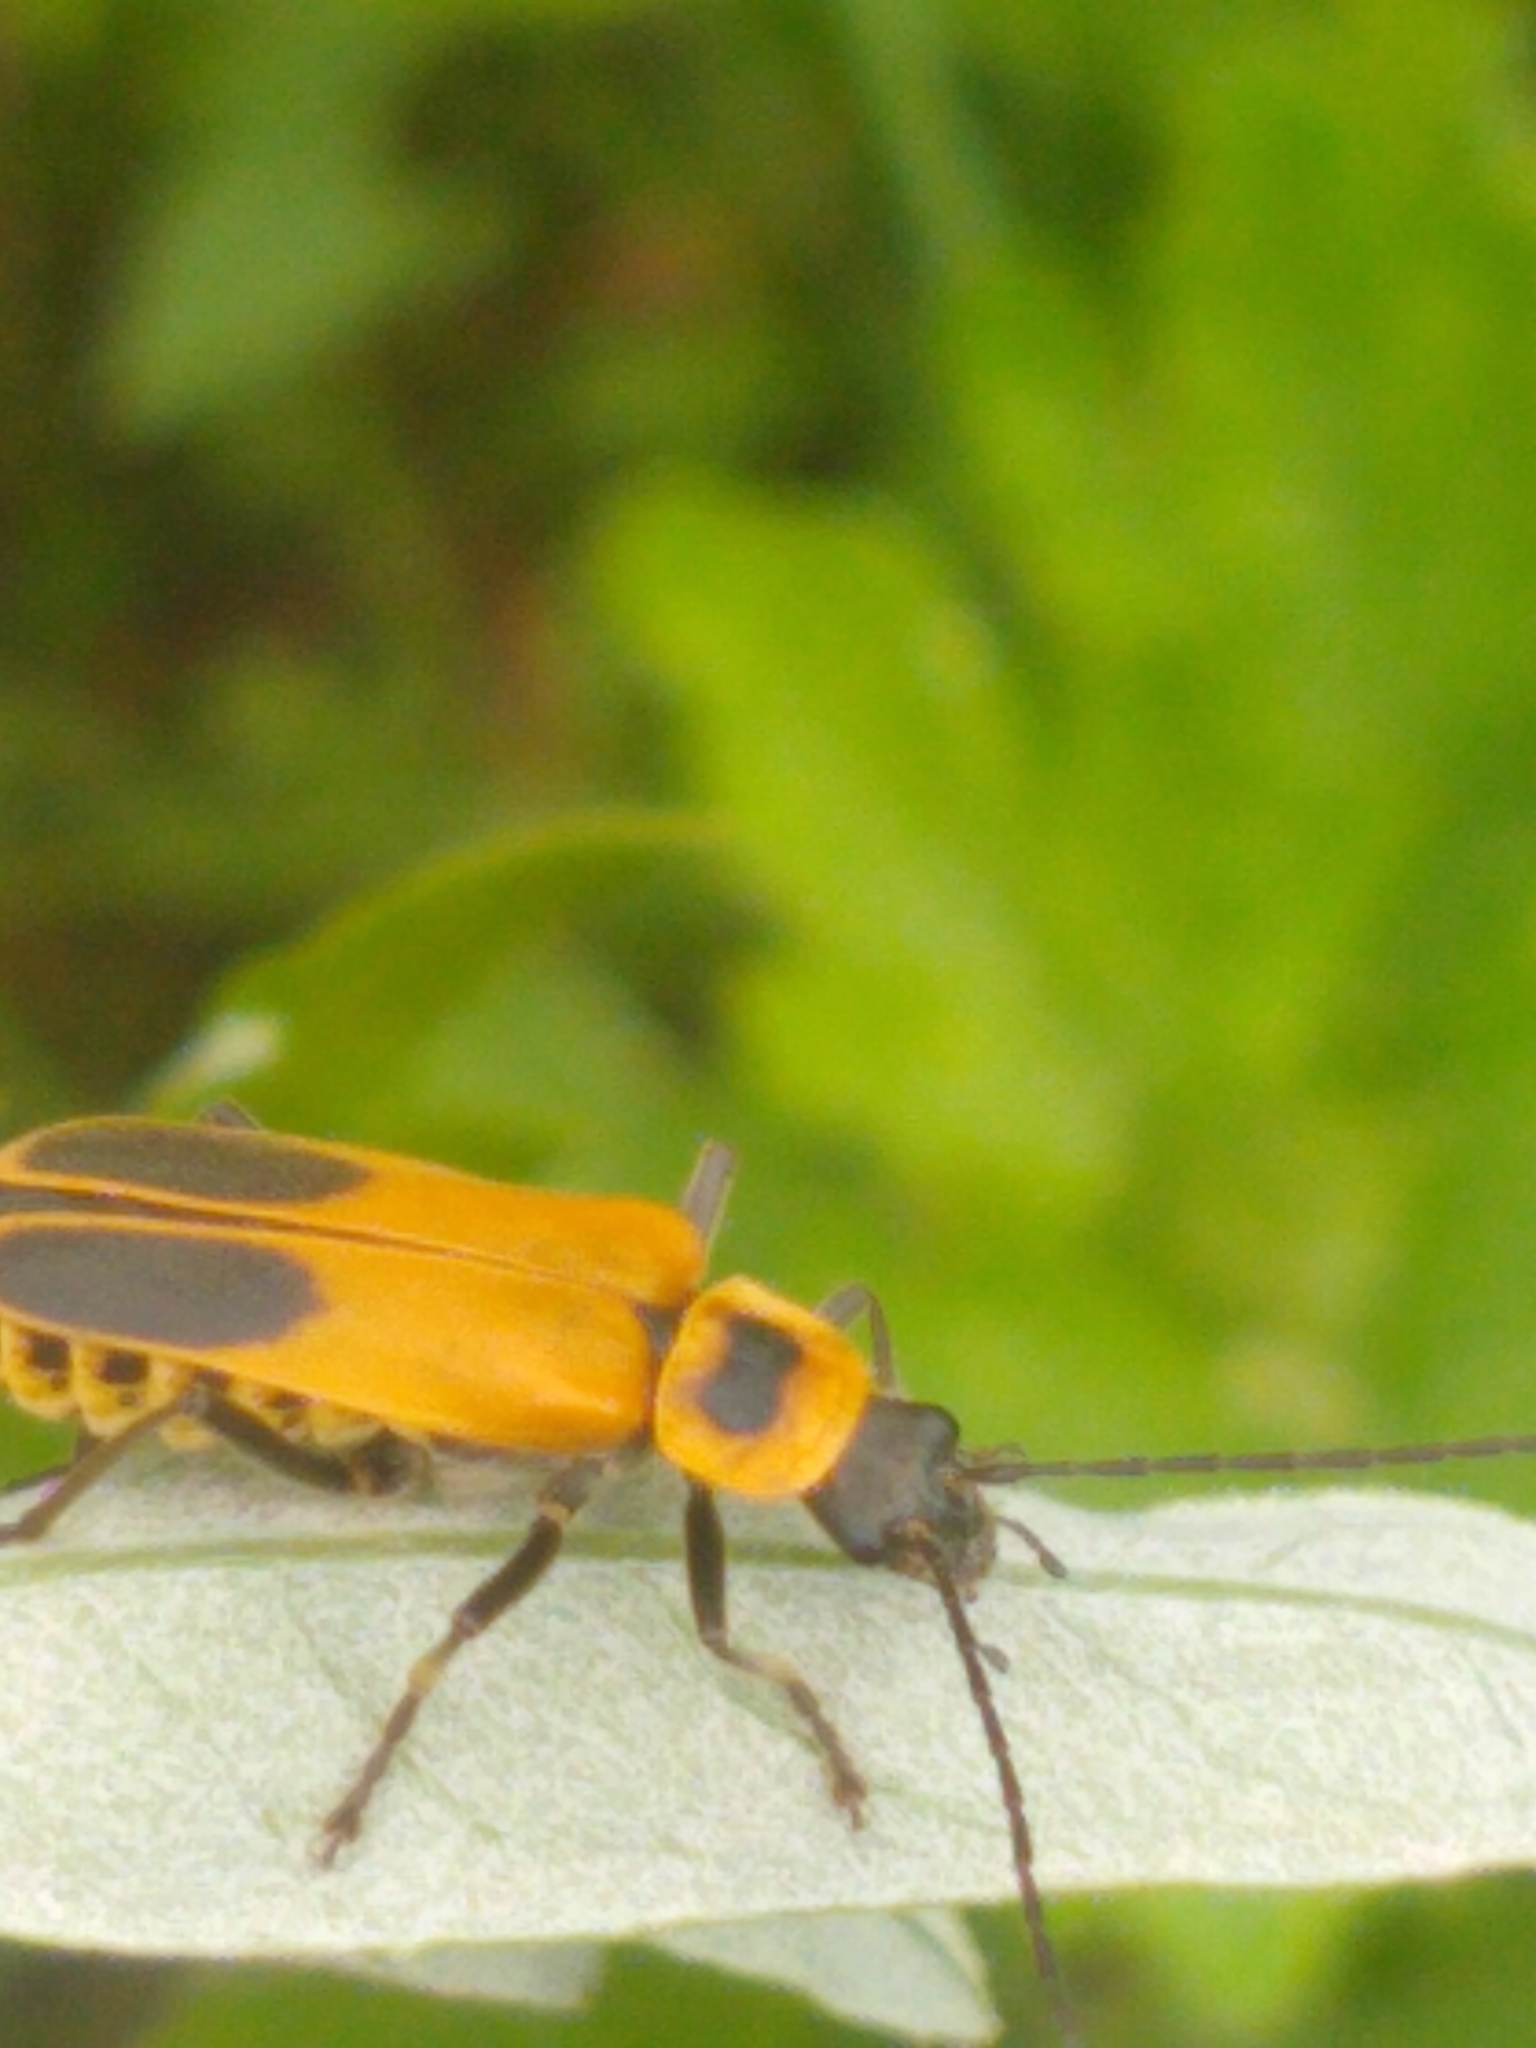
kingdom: Animalia
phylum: Arthropoda
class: Insecta
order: Coleoptera
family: Cantharidae
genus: Chauliognathus
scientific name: Chauliognathus pensylvanicus
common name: Goldenrod soldier beetle
